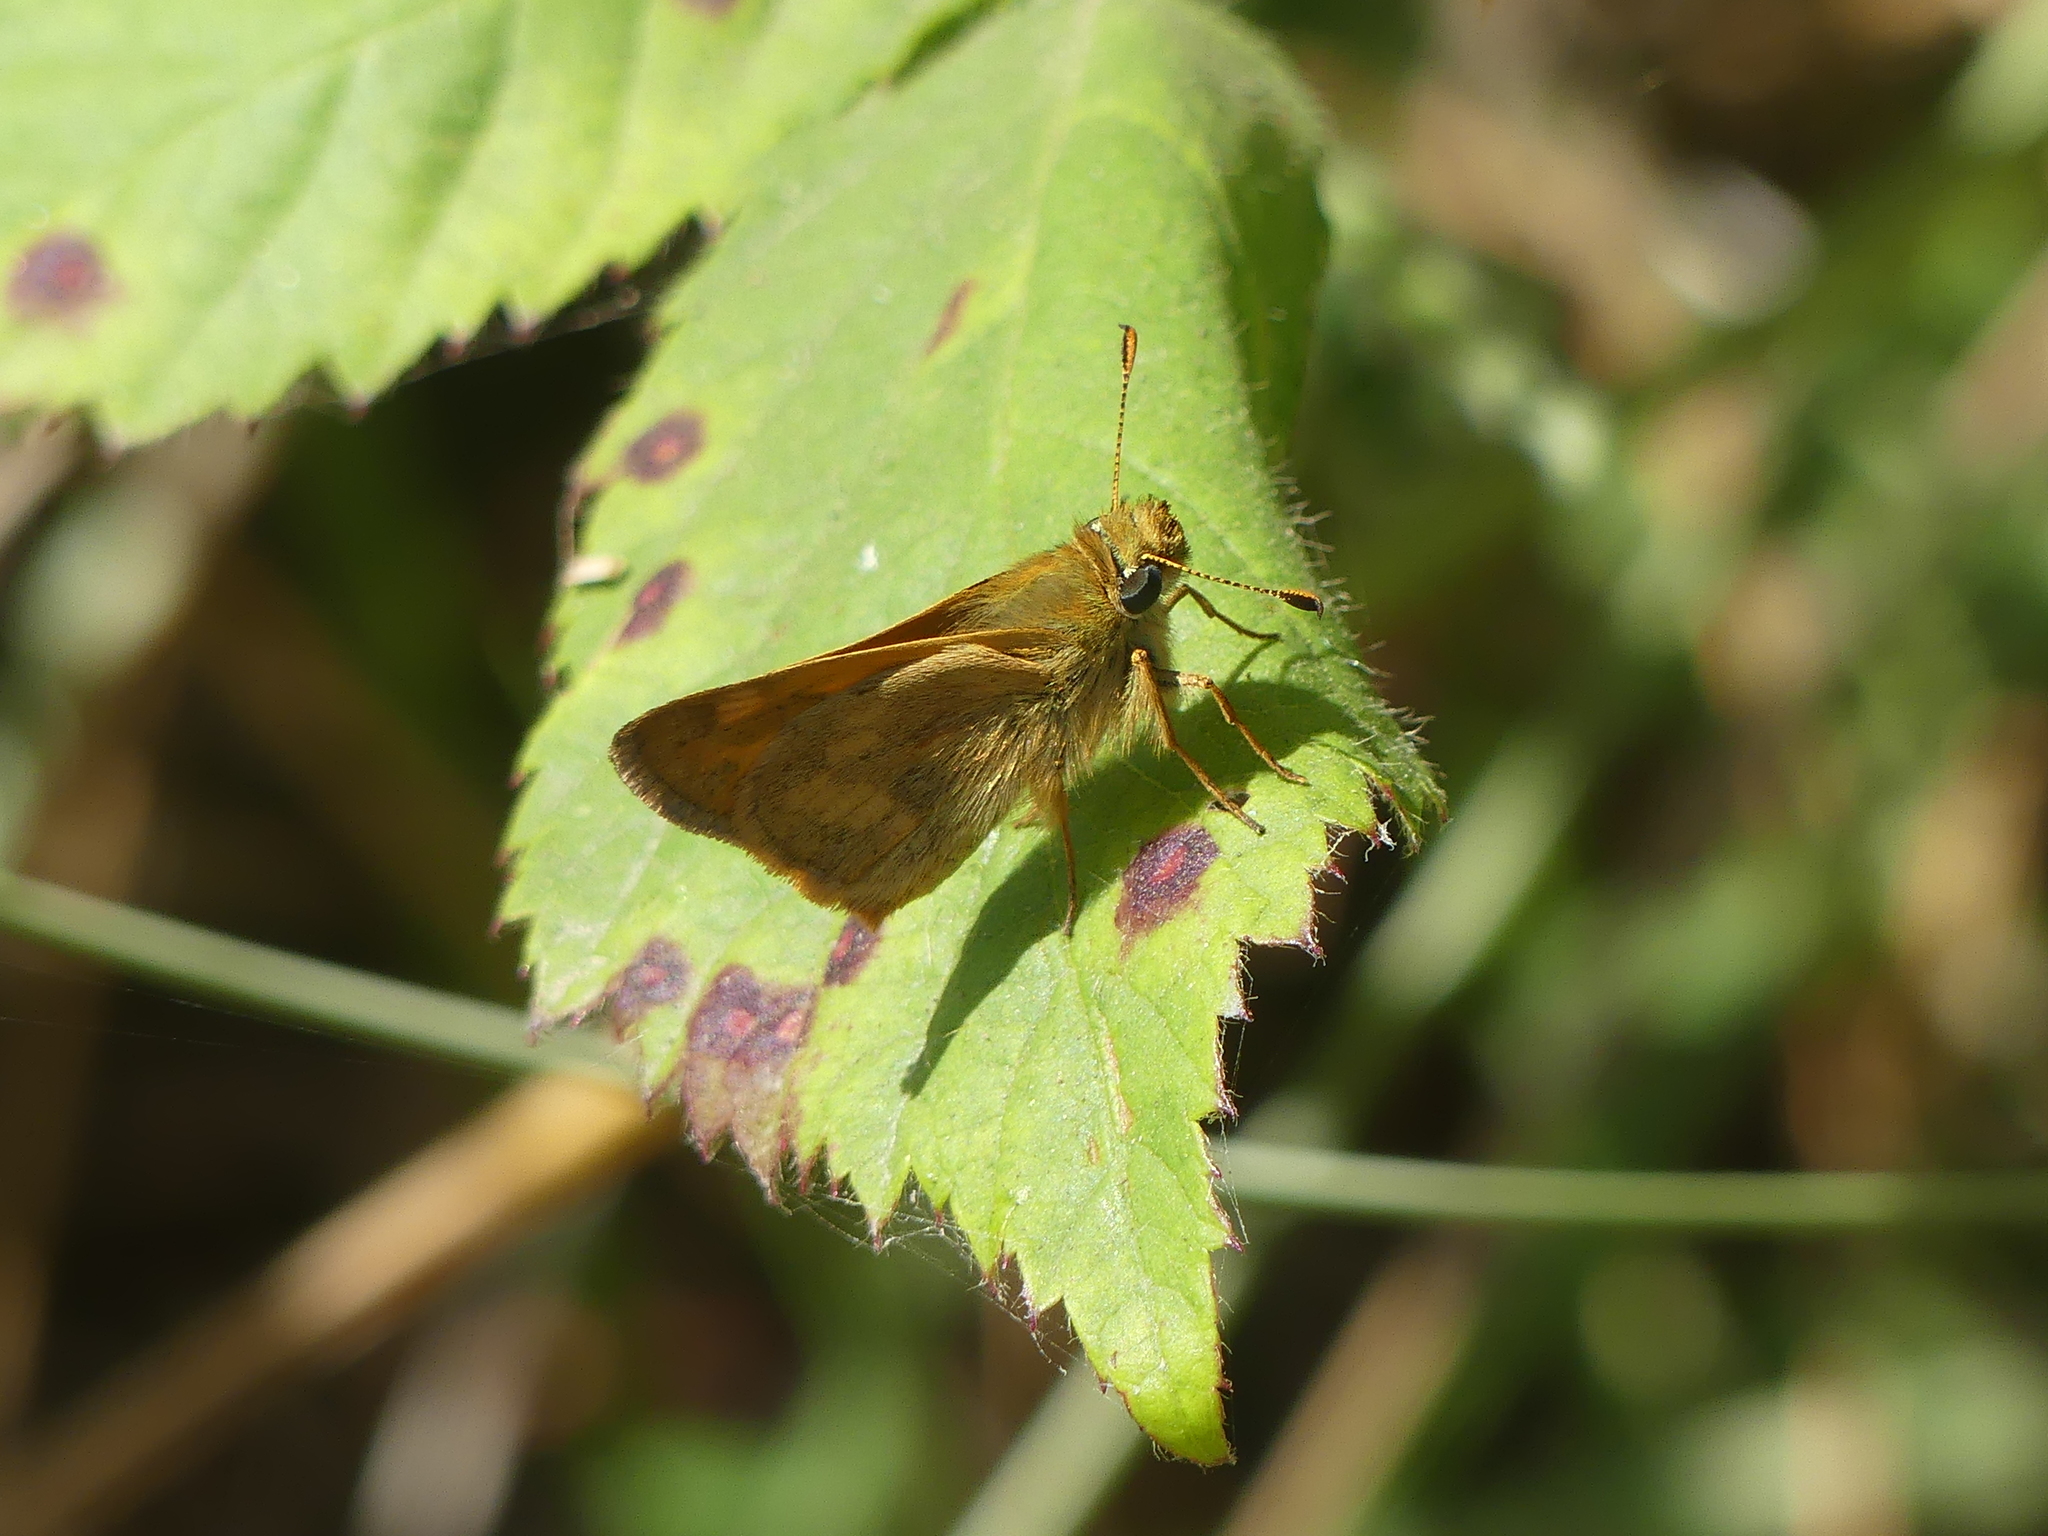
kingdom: Animalia
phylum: Arthropoda
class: Insecta
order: Lepidoptera
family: Hesperiidae
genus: Ochlodes
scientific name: Ochlodes sylvanoides
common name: Woodland skipper
